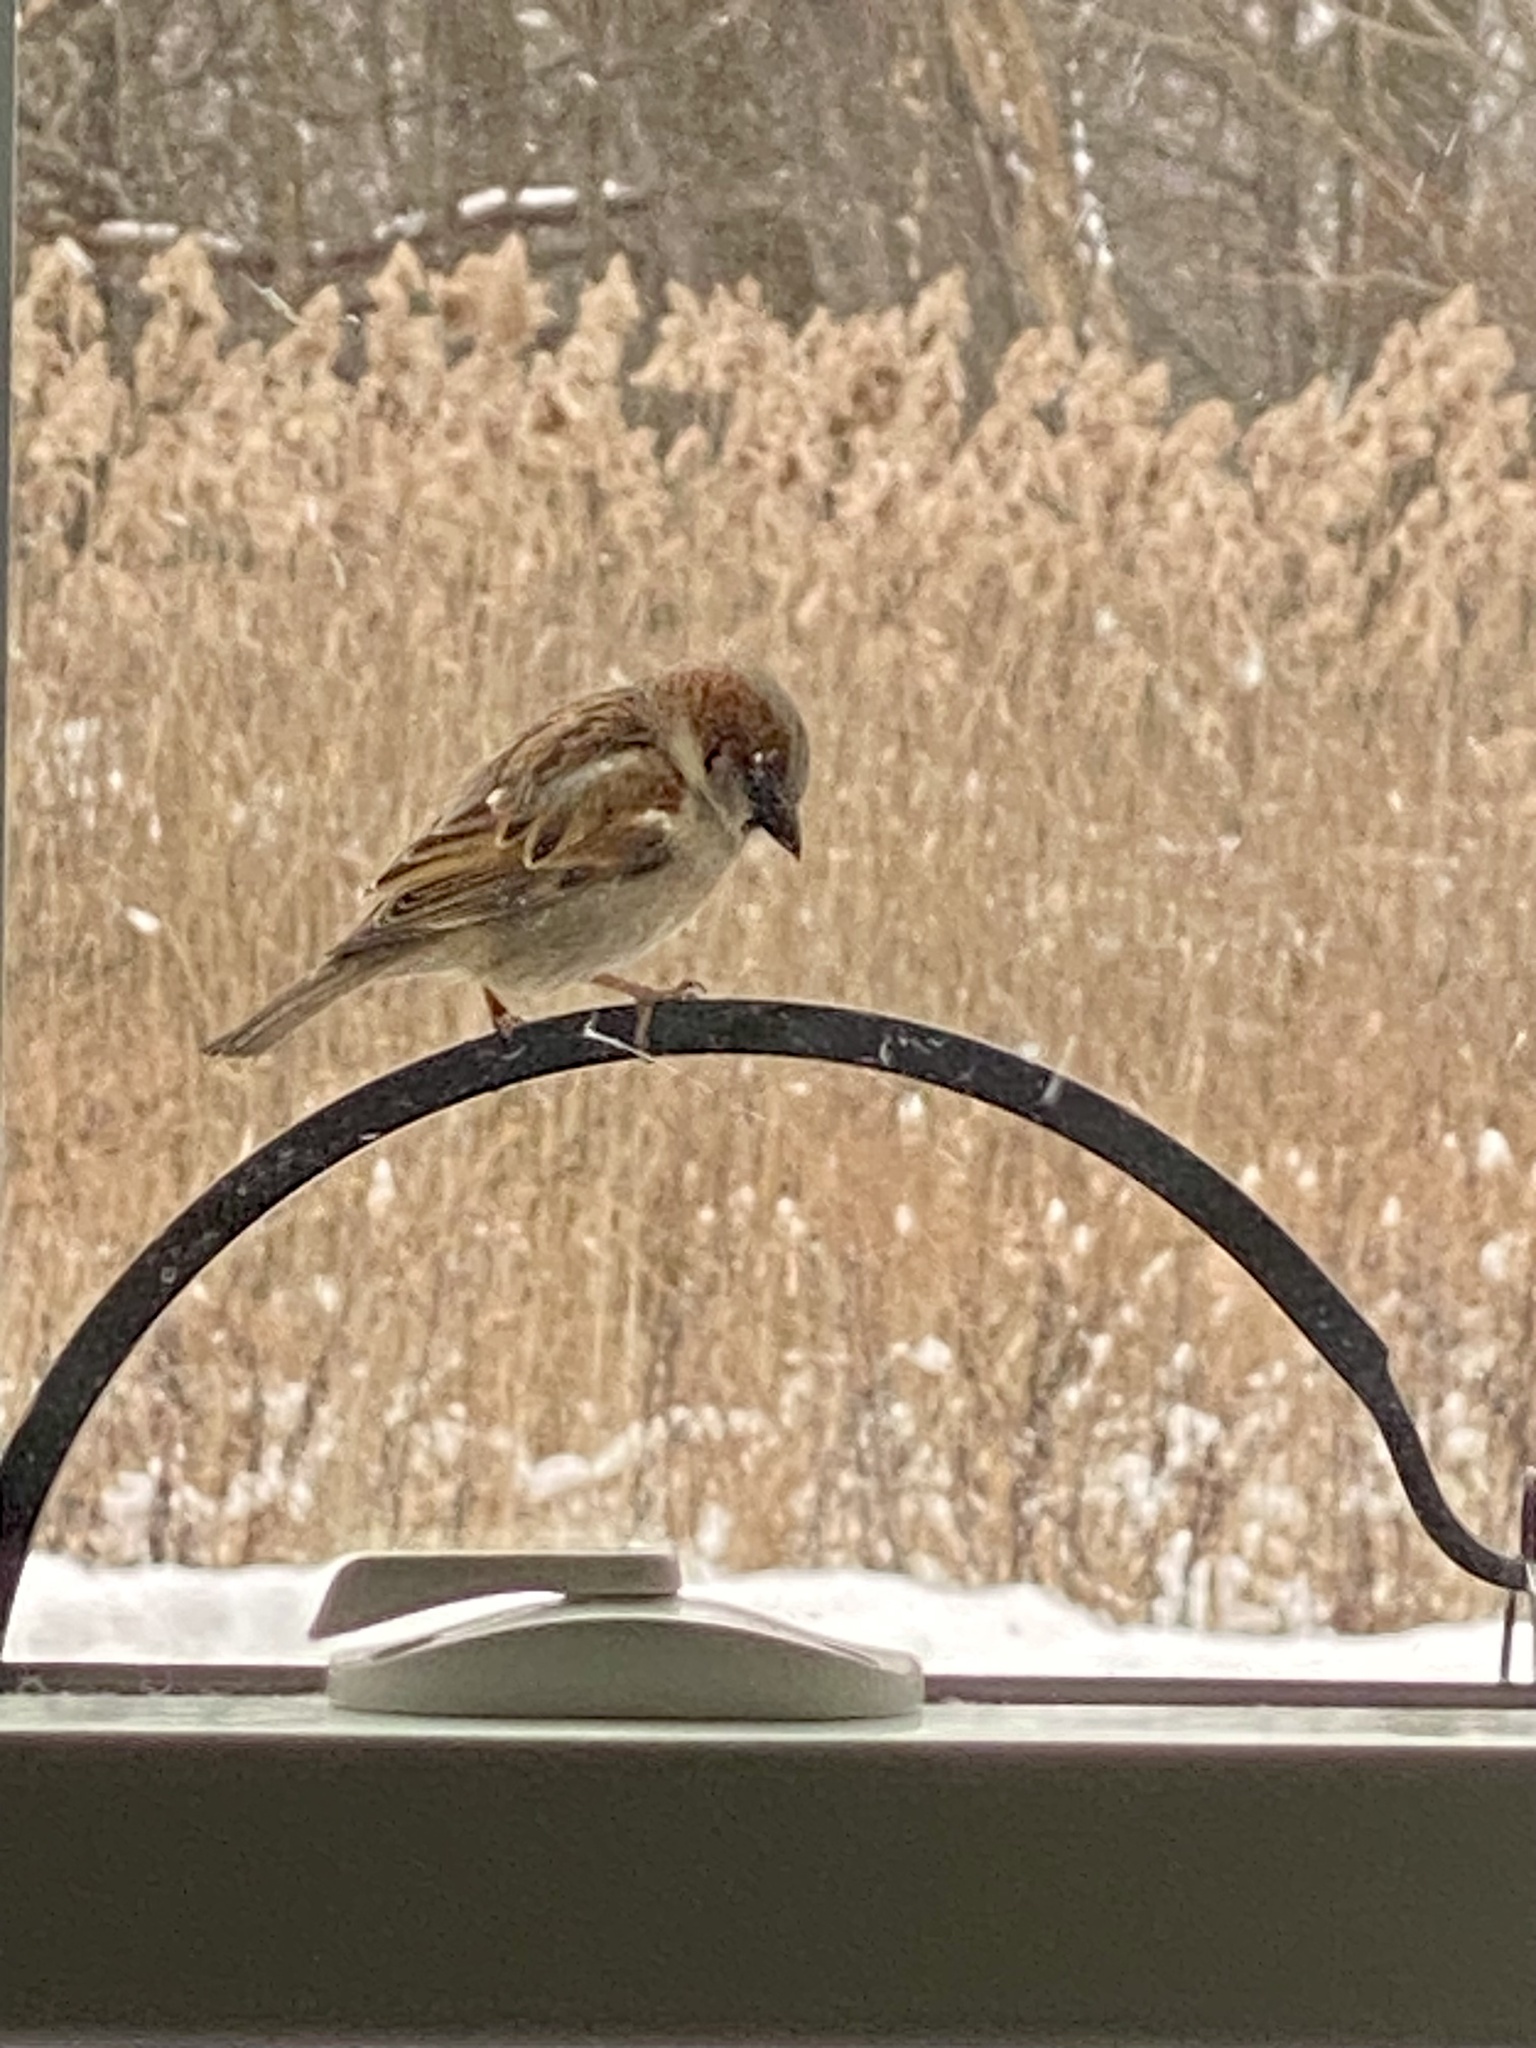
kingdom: Animalia
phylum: Chordata
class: Aves
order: Passeriformes
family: Passeridae
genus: Passer
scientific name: Passer domesticus
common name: House sparrow
